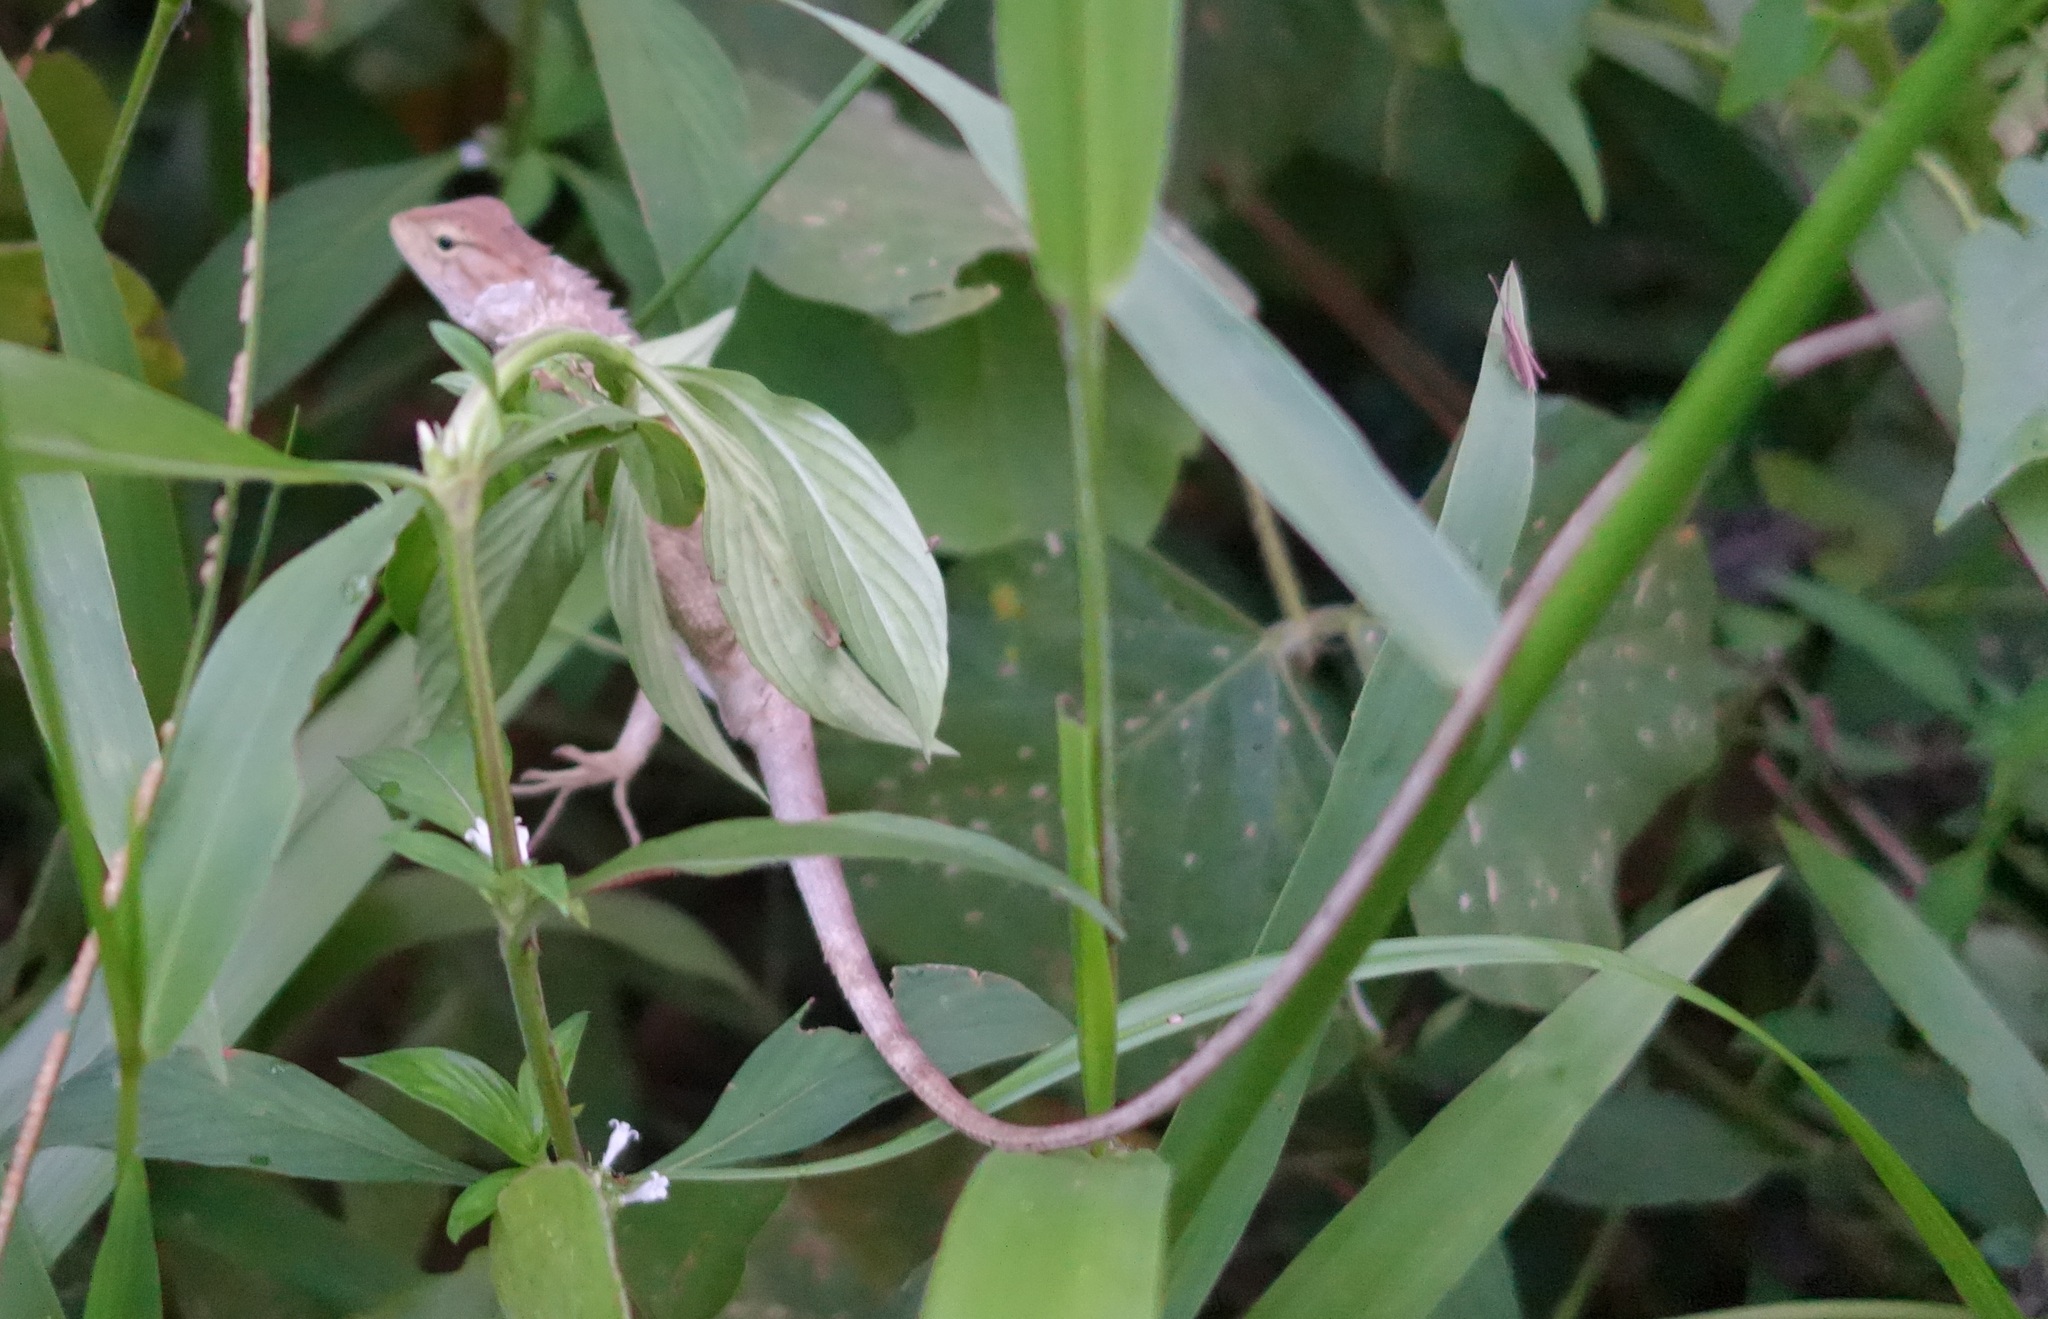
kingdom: Animalia
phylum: Chordata
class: Squamata
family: Agamidae
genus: Calotes
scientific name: Calotes versicolor
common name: Oriental garden lizard
